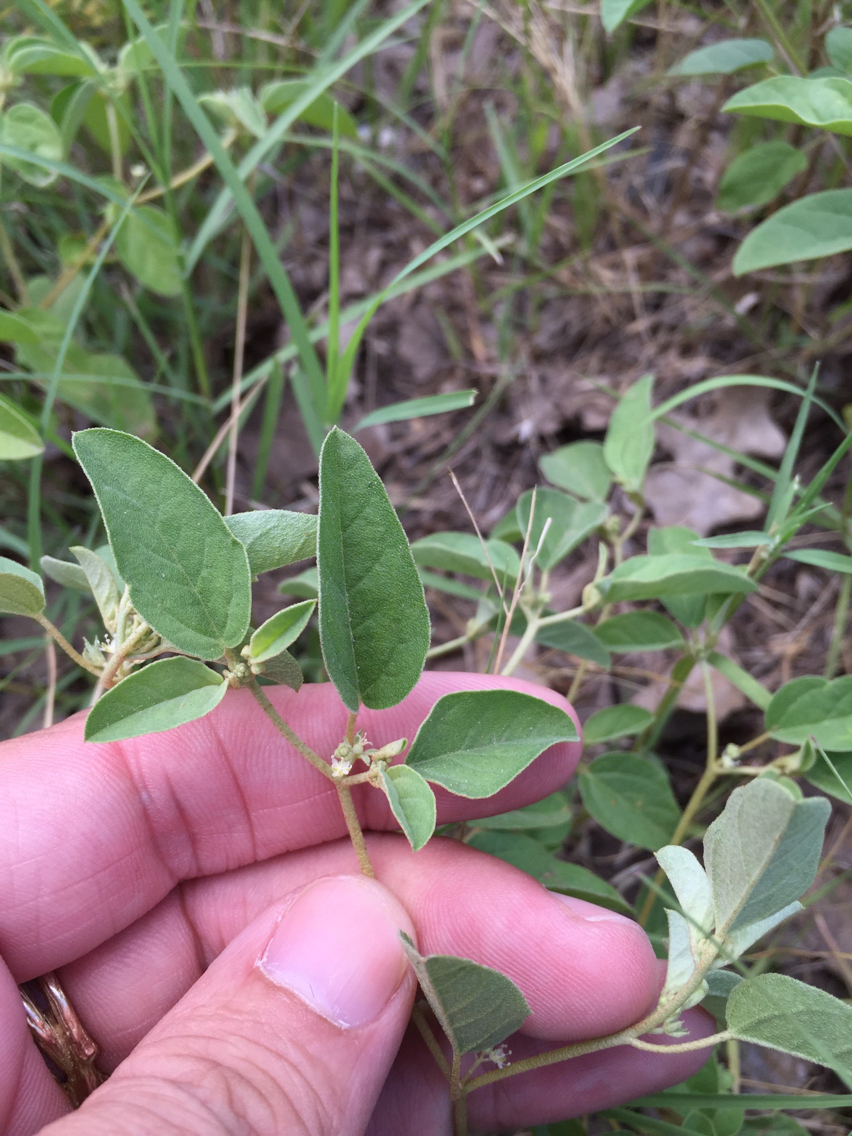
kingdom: Plantae
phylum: Tracheophyta
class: Magnoliopsida
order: Malpighiales
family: Euphorbiaceae
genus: Croton
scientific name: Croton monanthogynus
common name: One-seed croton
